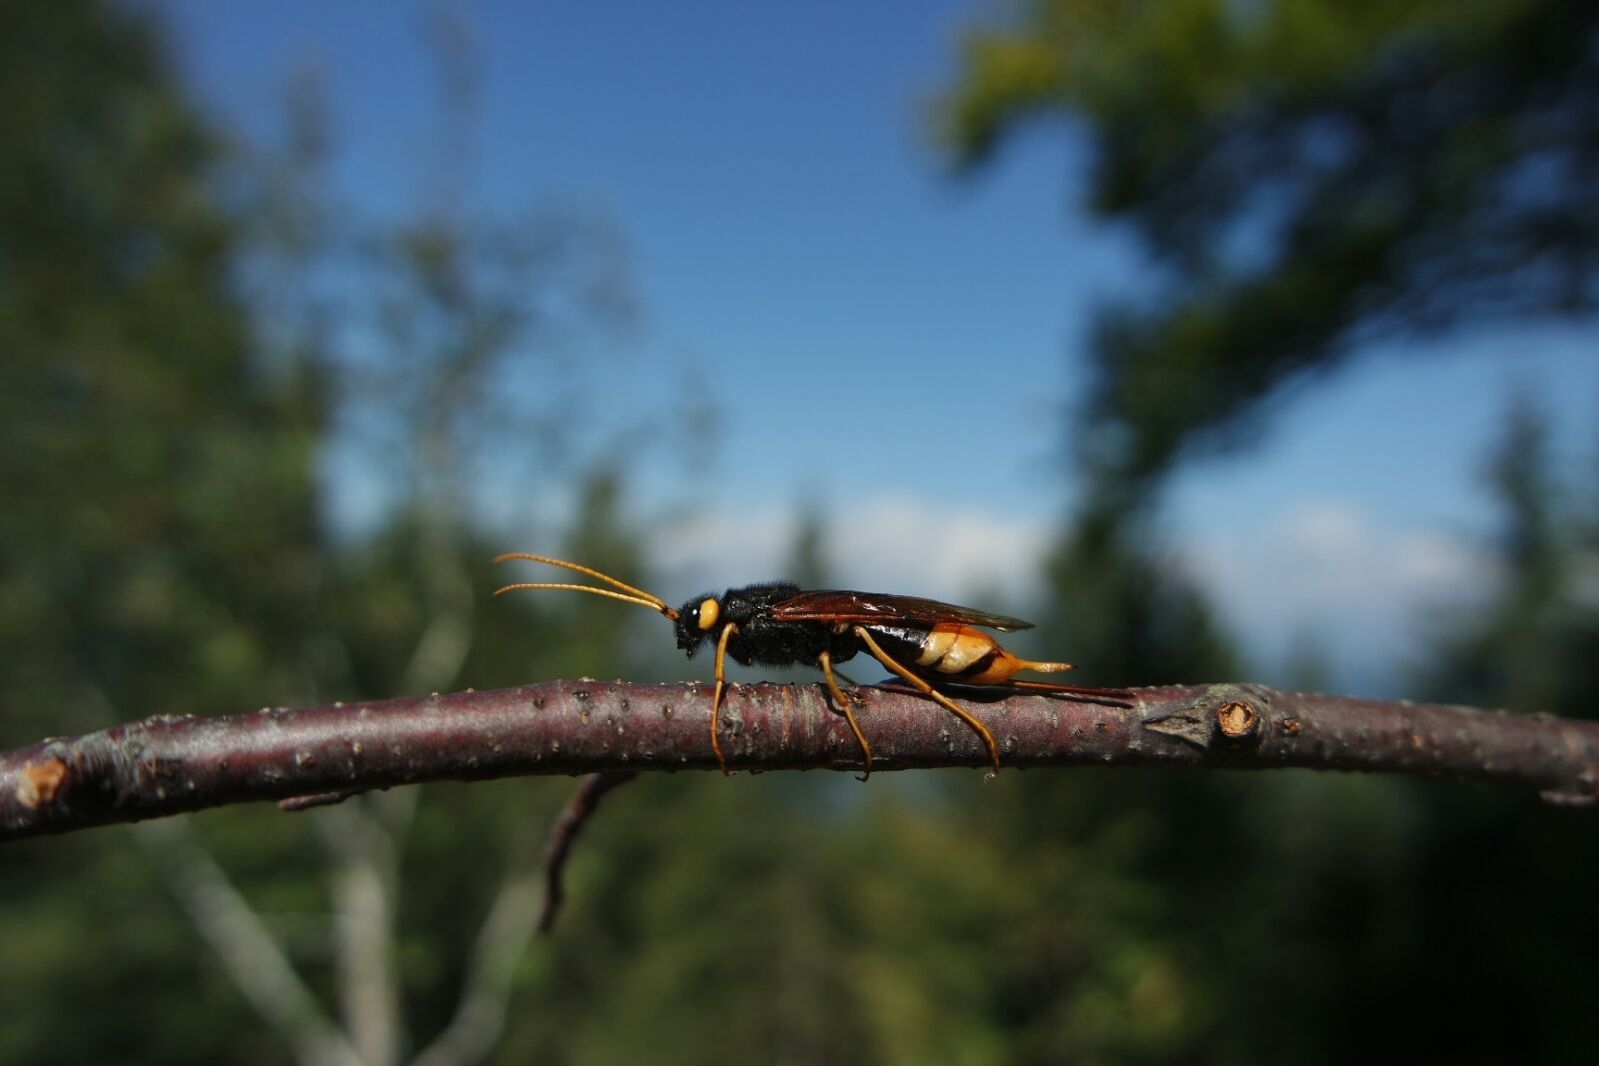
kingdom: Animalia
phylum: Arthropoda
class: Insecta
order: Hymenoptera
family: Siricidae
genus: Urocerus
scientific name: Urocerus gigas
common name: Giant woodwasp
